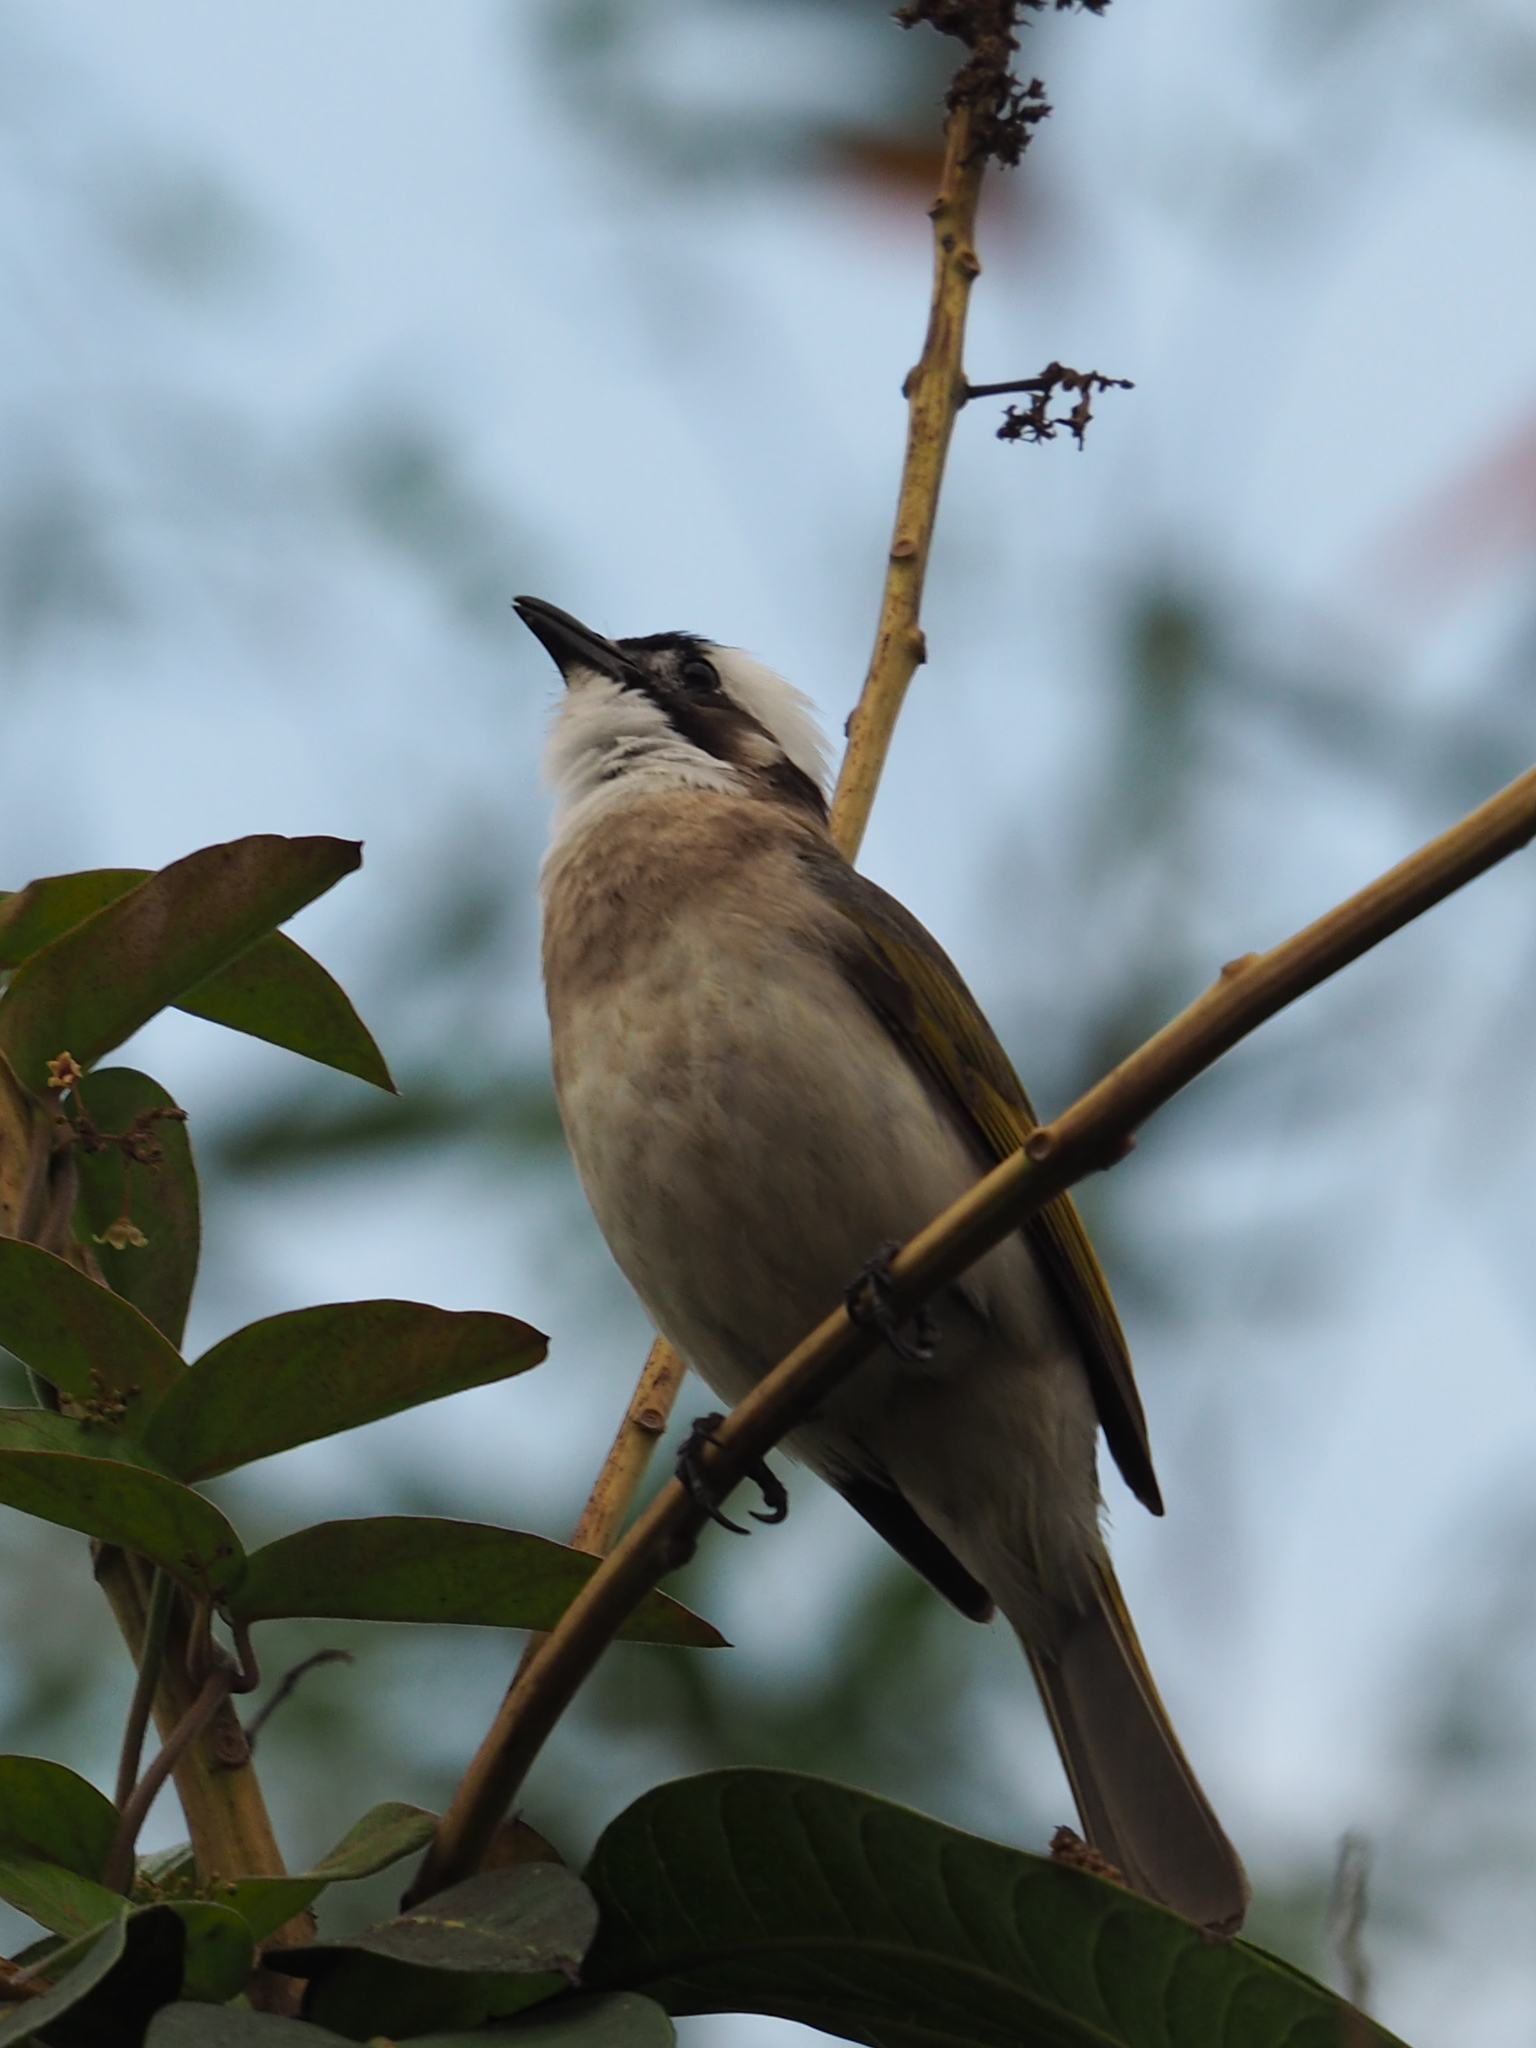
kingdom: Animalia
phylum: Chordata
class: Aves
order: Passeriformes
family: Pycnonotidae
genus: Pycnonotus
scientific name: Pycnonotus sinensis
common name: Light-vented bulbul
